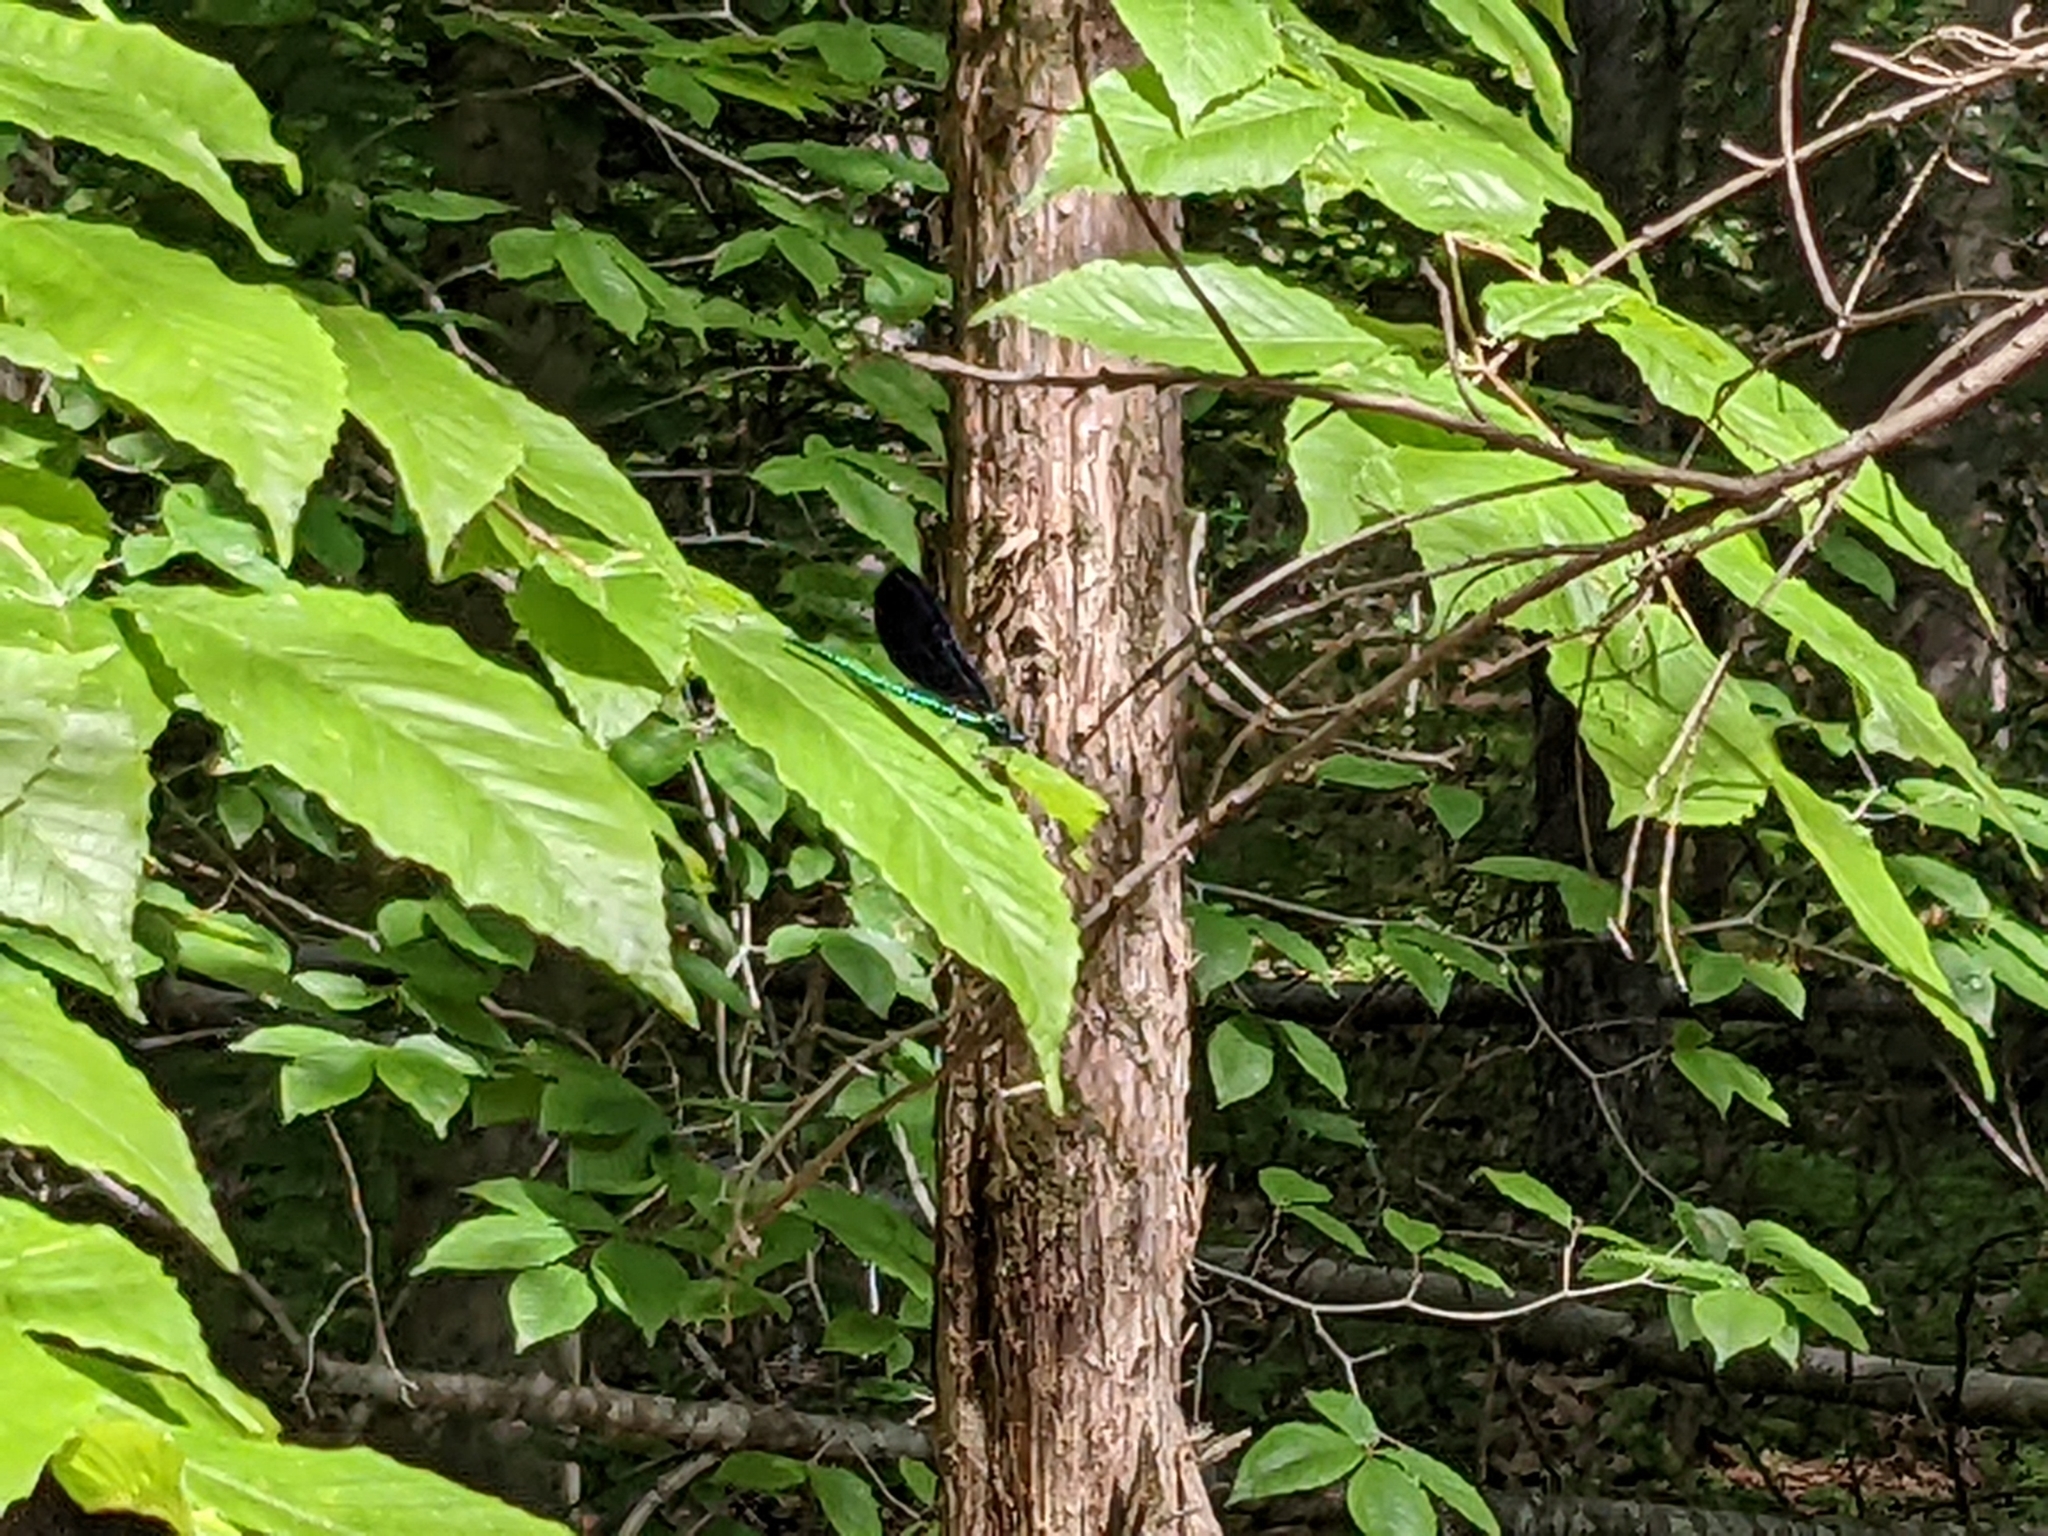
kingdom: Animalia
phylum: Arthropoda
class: Insecta
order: Odonata
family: Calopterygidae
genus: Calopteryx
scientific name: Calopteryx maculata
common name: Ebony jewelwing
